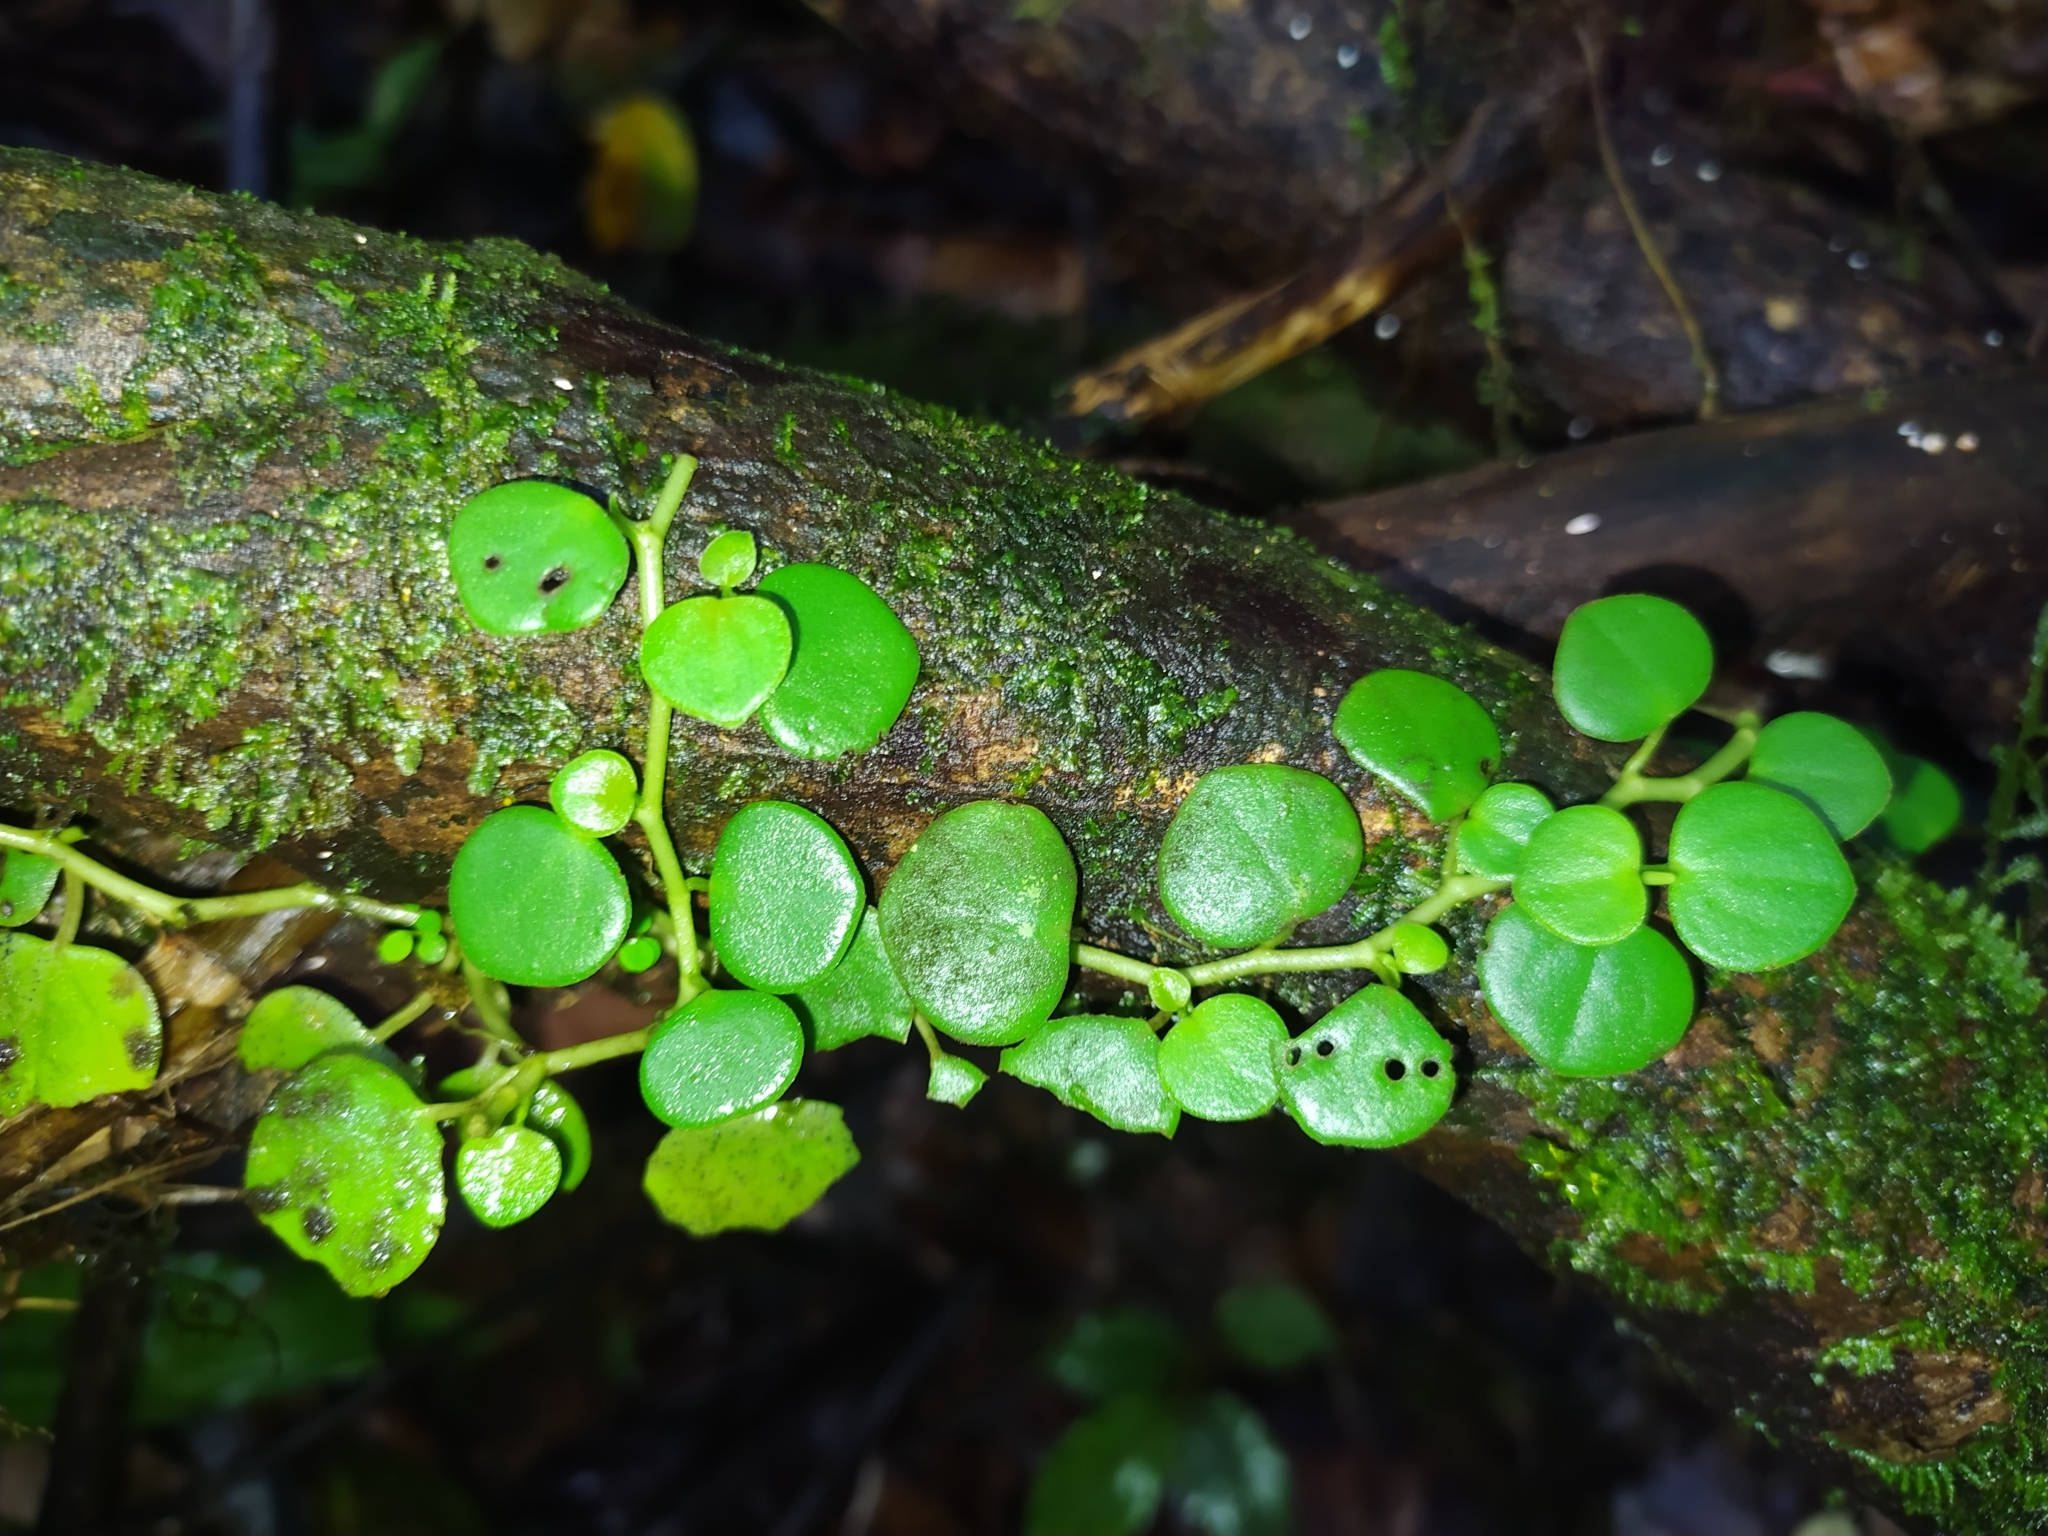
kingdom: Plantae
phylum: Tracheophyta
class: Magnoliopsida
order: Piperales
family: Piperaceae
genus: Peperomia
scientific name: Peperomia serpens
